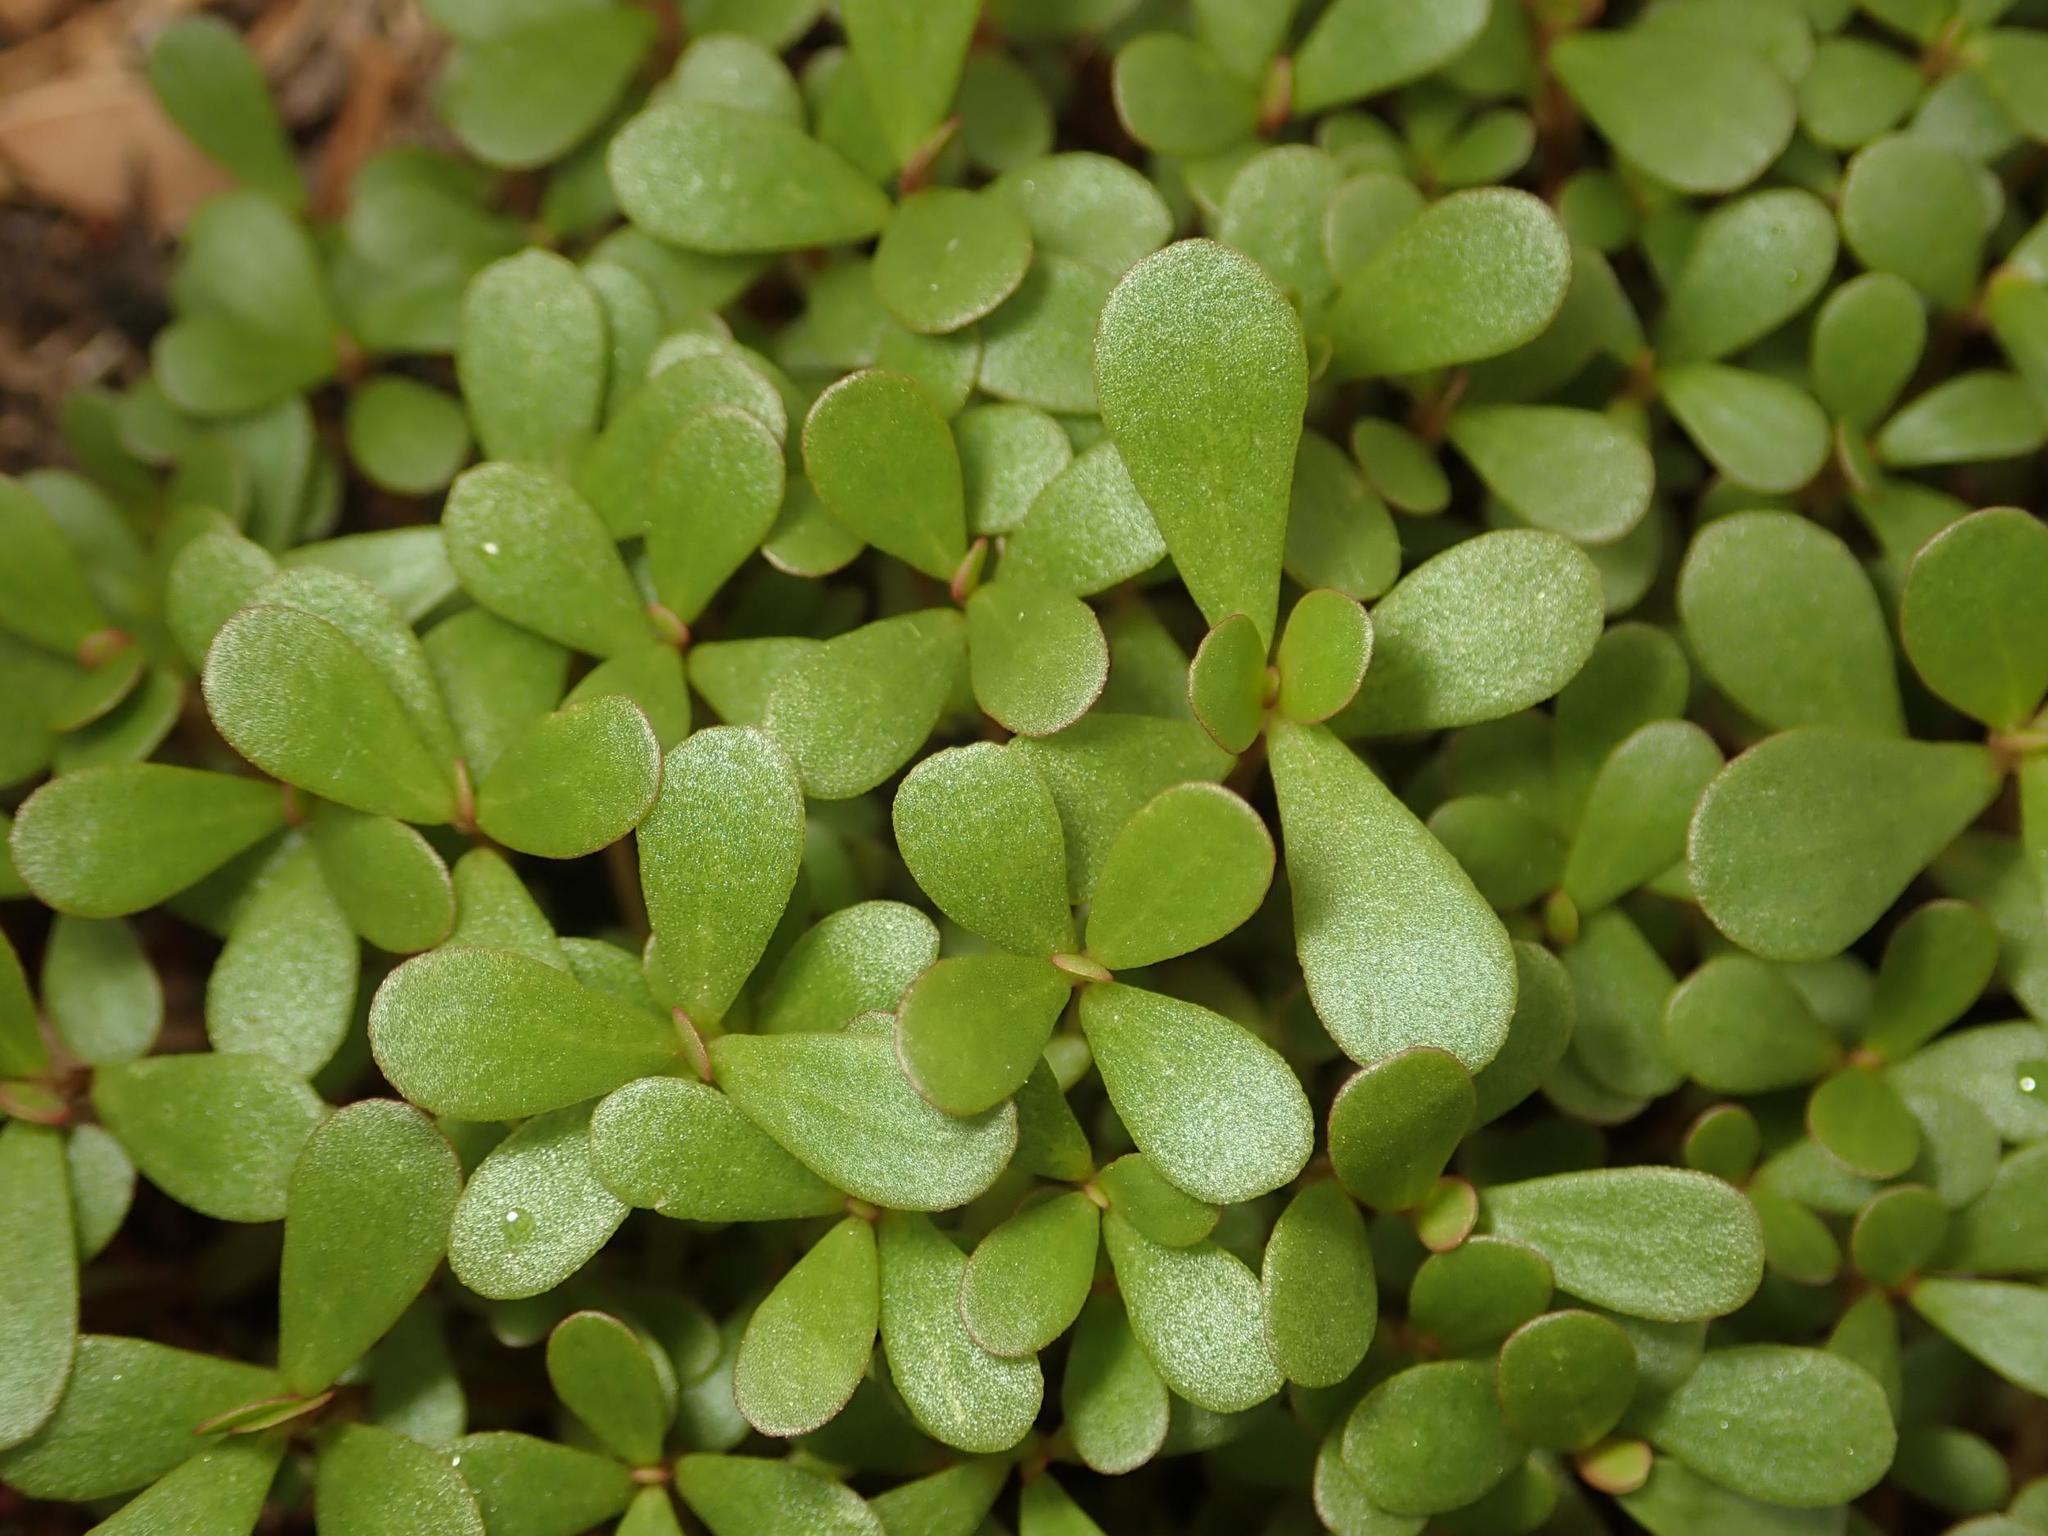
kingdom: Plantae
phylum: Tracheophyta
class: Magnoliopsida
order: Caryophyllales
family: Portulacaceae
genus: Portulaca
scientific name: Portulaca oleracea
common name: Common purslane
